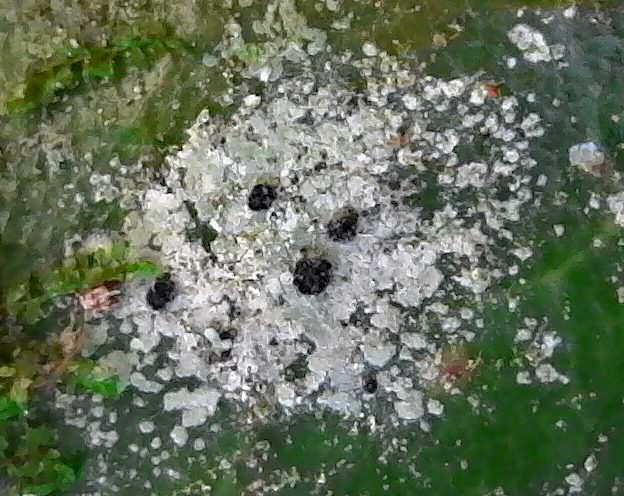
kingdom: Fungi
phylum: Ascomycota
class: Lecanoromycetes
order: Lecanorales
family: Byssolomataceae
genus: Calopadia
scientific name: Calopadia subcoerulescens
